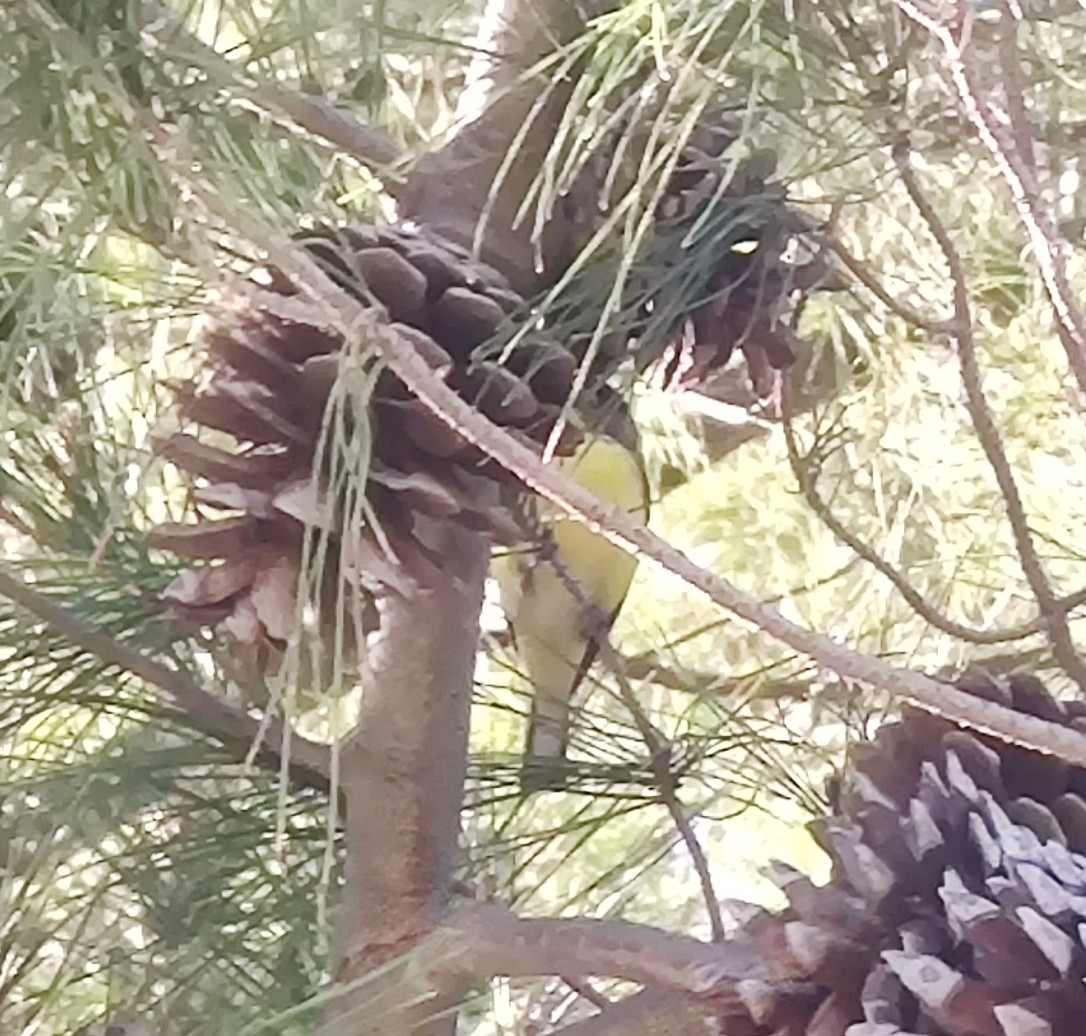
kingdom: Animalia
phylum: Chordata
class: Aves
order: Passeriformes
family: Fringillidae
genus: Spinus
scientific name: Spinus psaltria
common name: Lesser goldfinch
